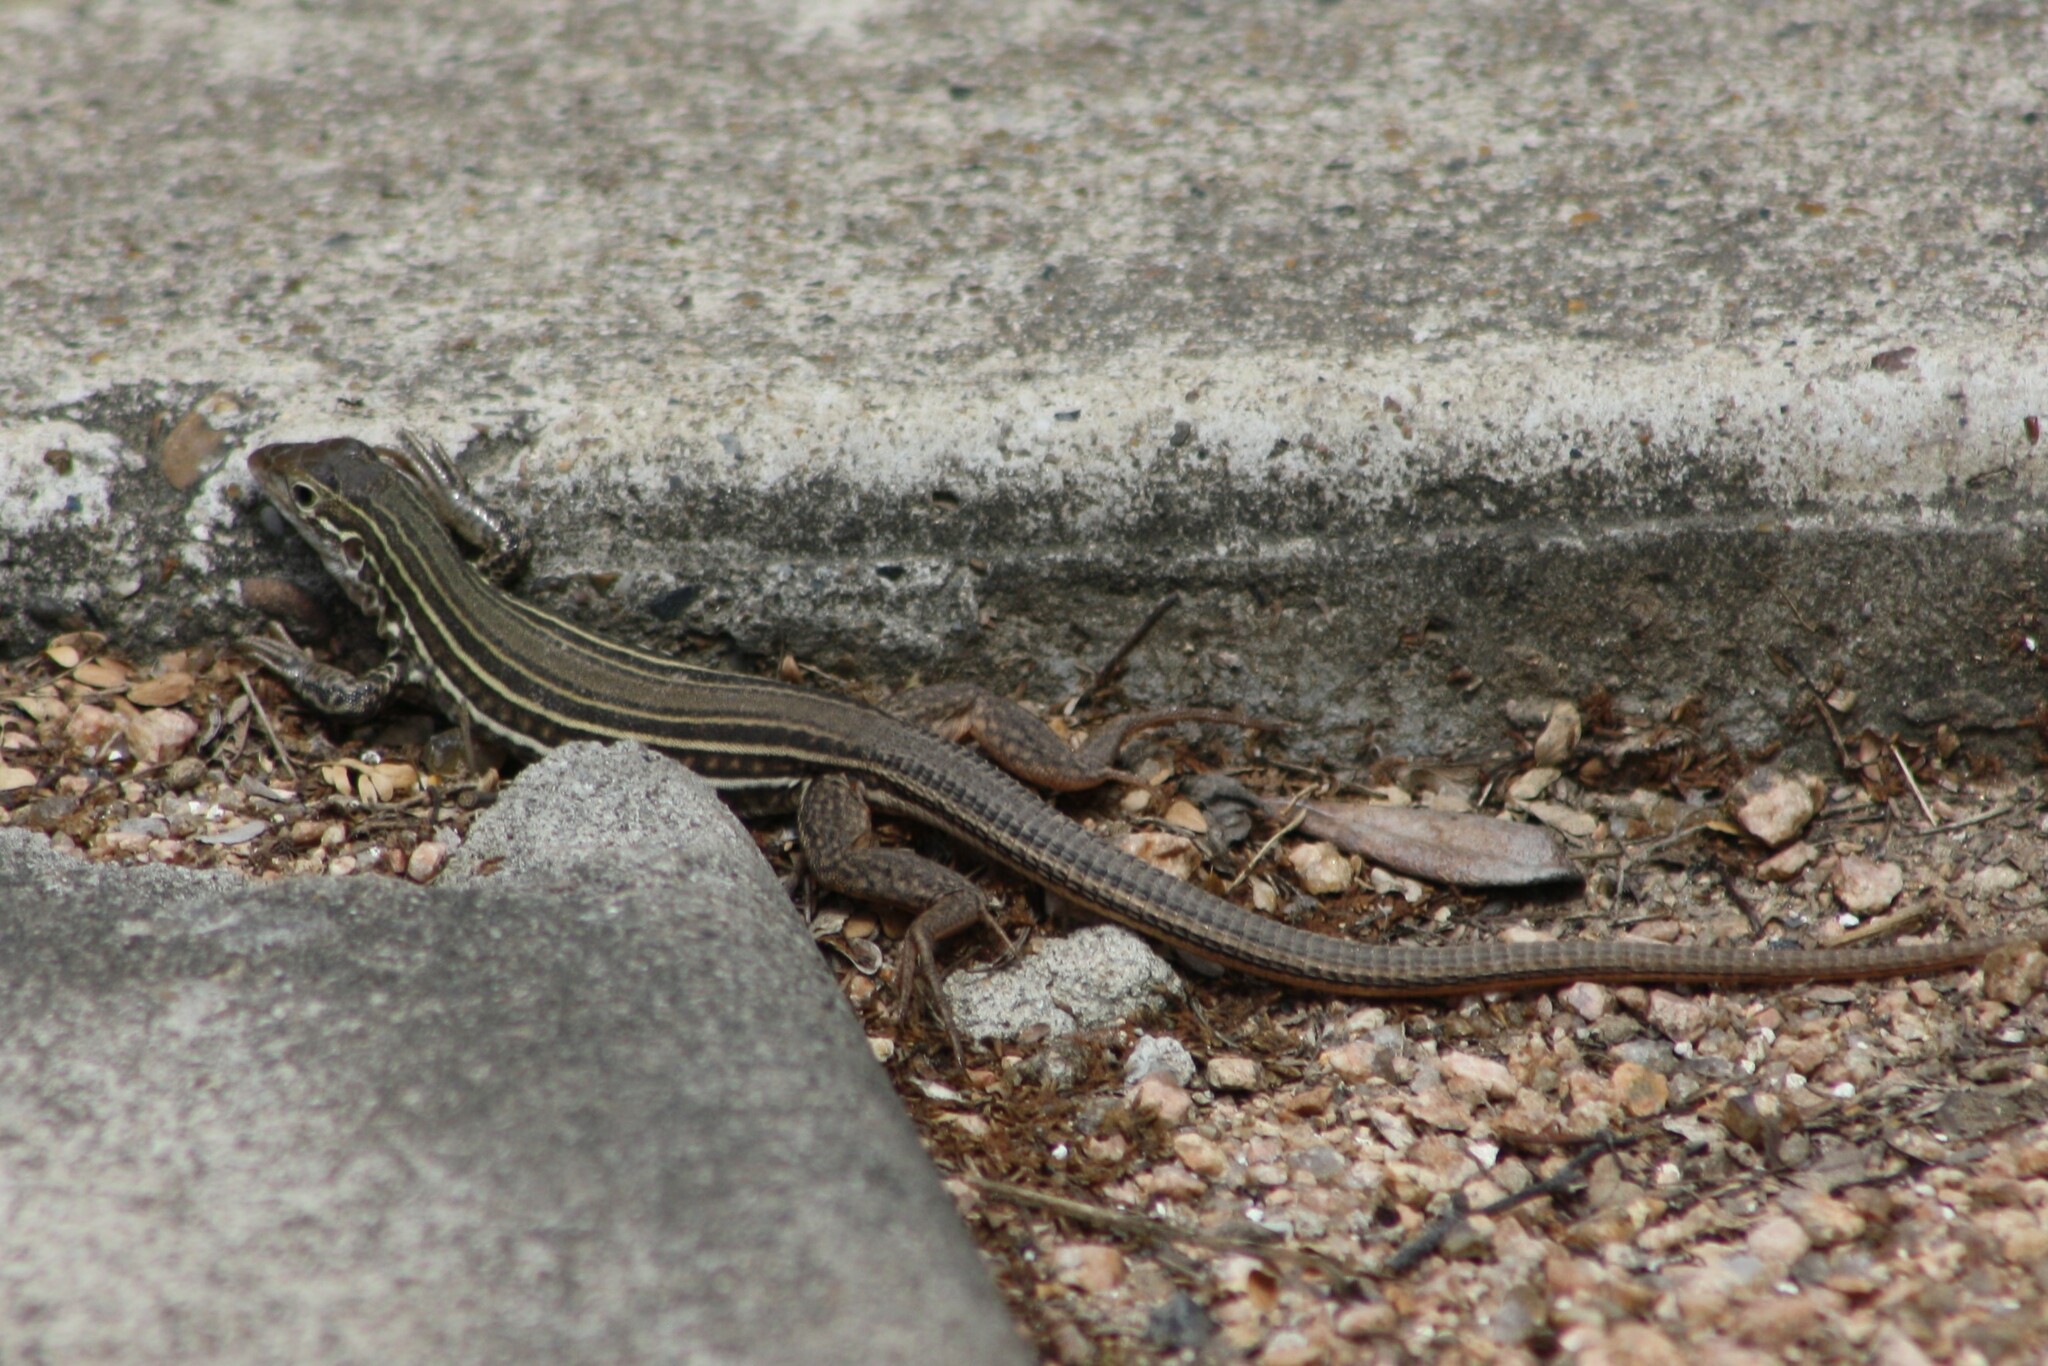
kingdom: Animalia
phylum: Chordata
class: Squamata
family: Teiidae
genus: Aspidoscelis
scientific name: Aspidoscelis gularis
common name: Eastern spotted whiptail
